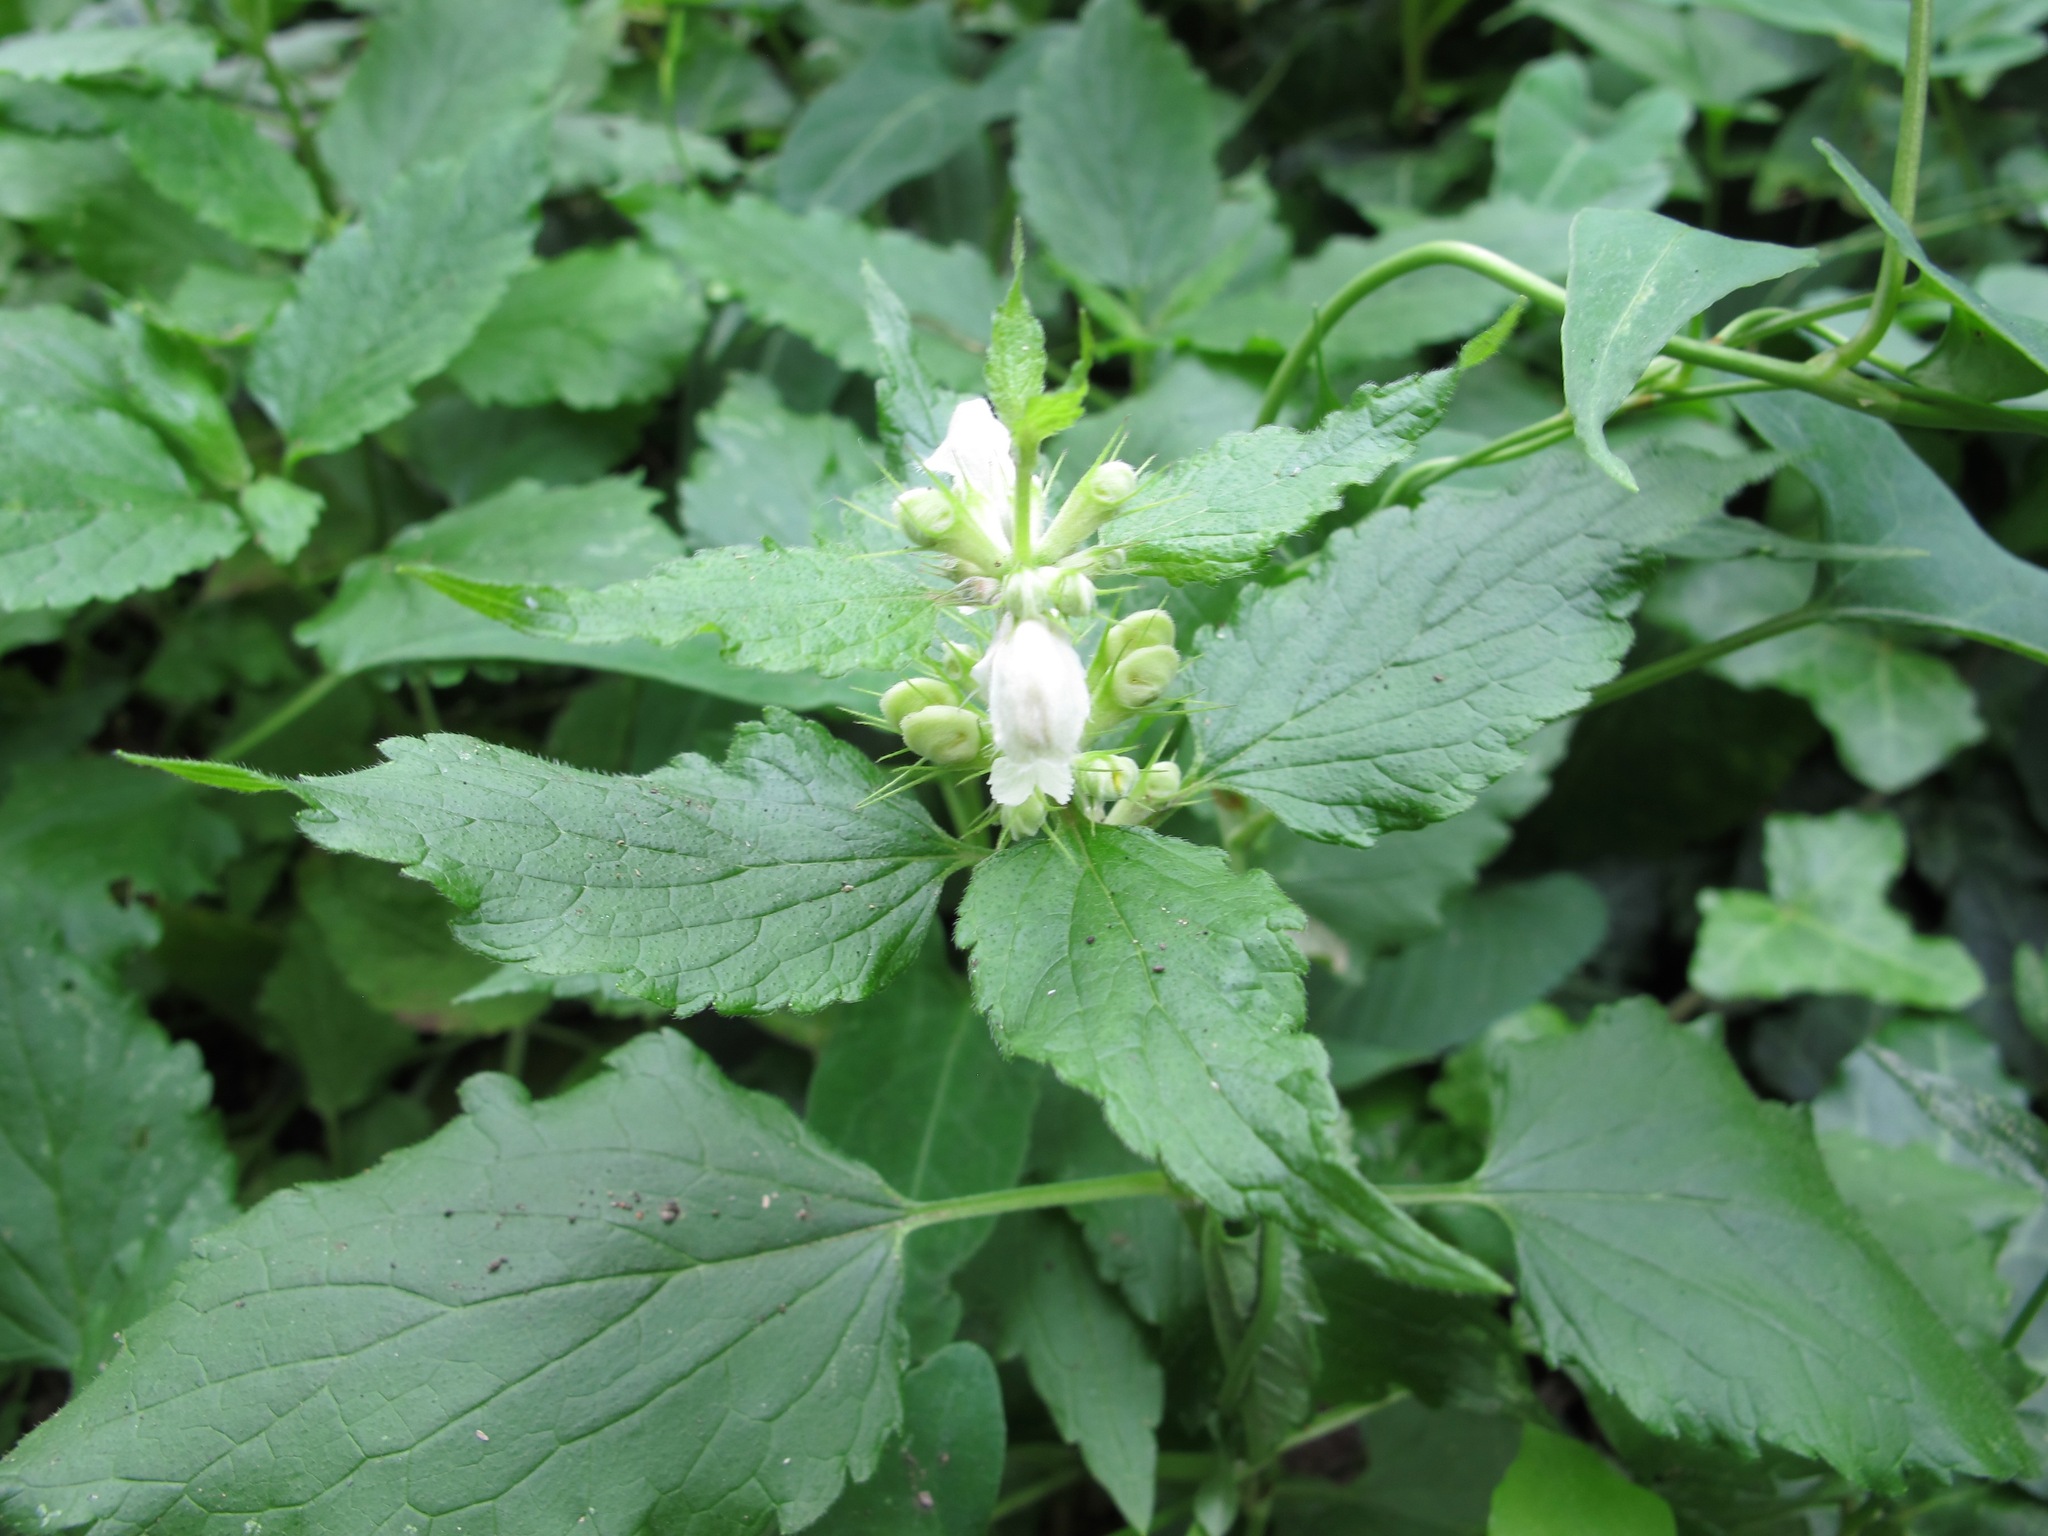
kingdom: Plantae
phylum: Tracheophyta
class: Magnoliopsida
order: Lamiales
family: Lamiaceae
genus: Lamium
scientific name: Lamium album
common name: White dead-nettle
